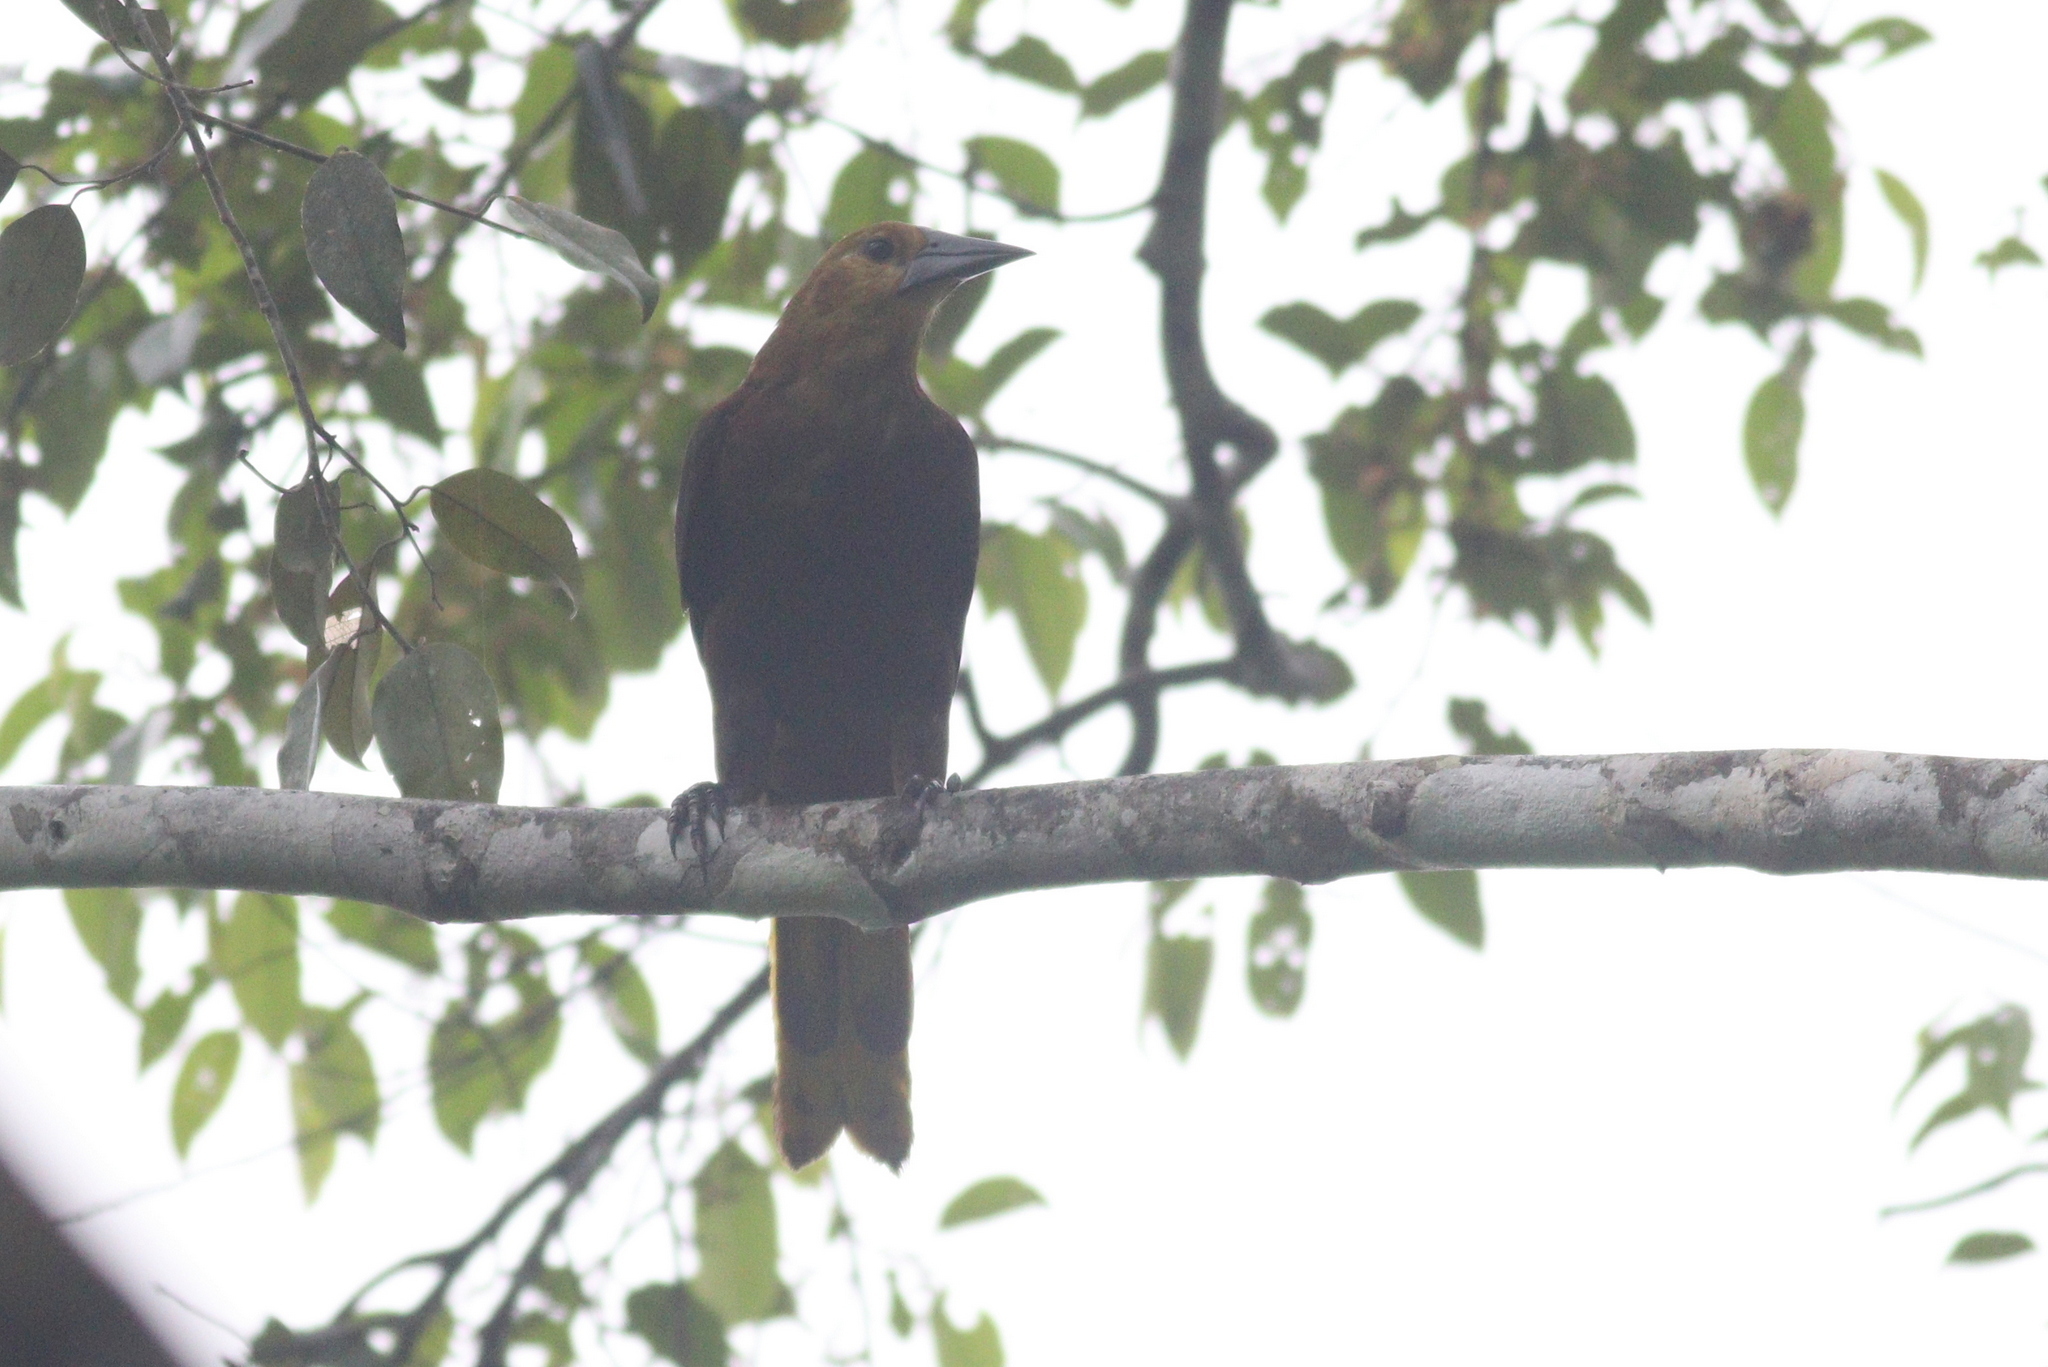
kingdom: Animalia
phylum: Chordata
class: Aves
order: Passeriformes
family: Icteridae
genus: Psarocolius
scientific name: Psarocolius angustifrons
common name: Russet-backed oropendola
